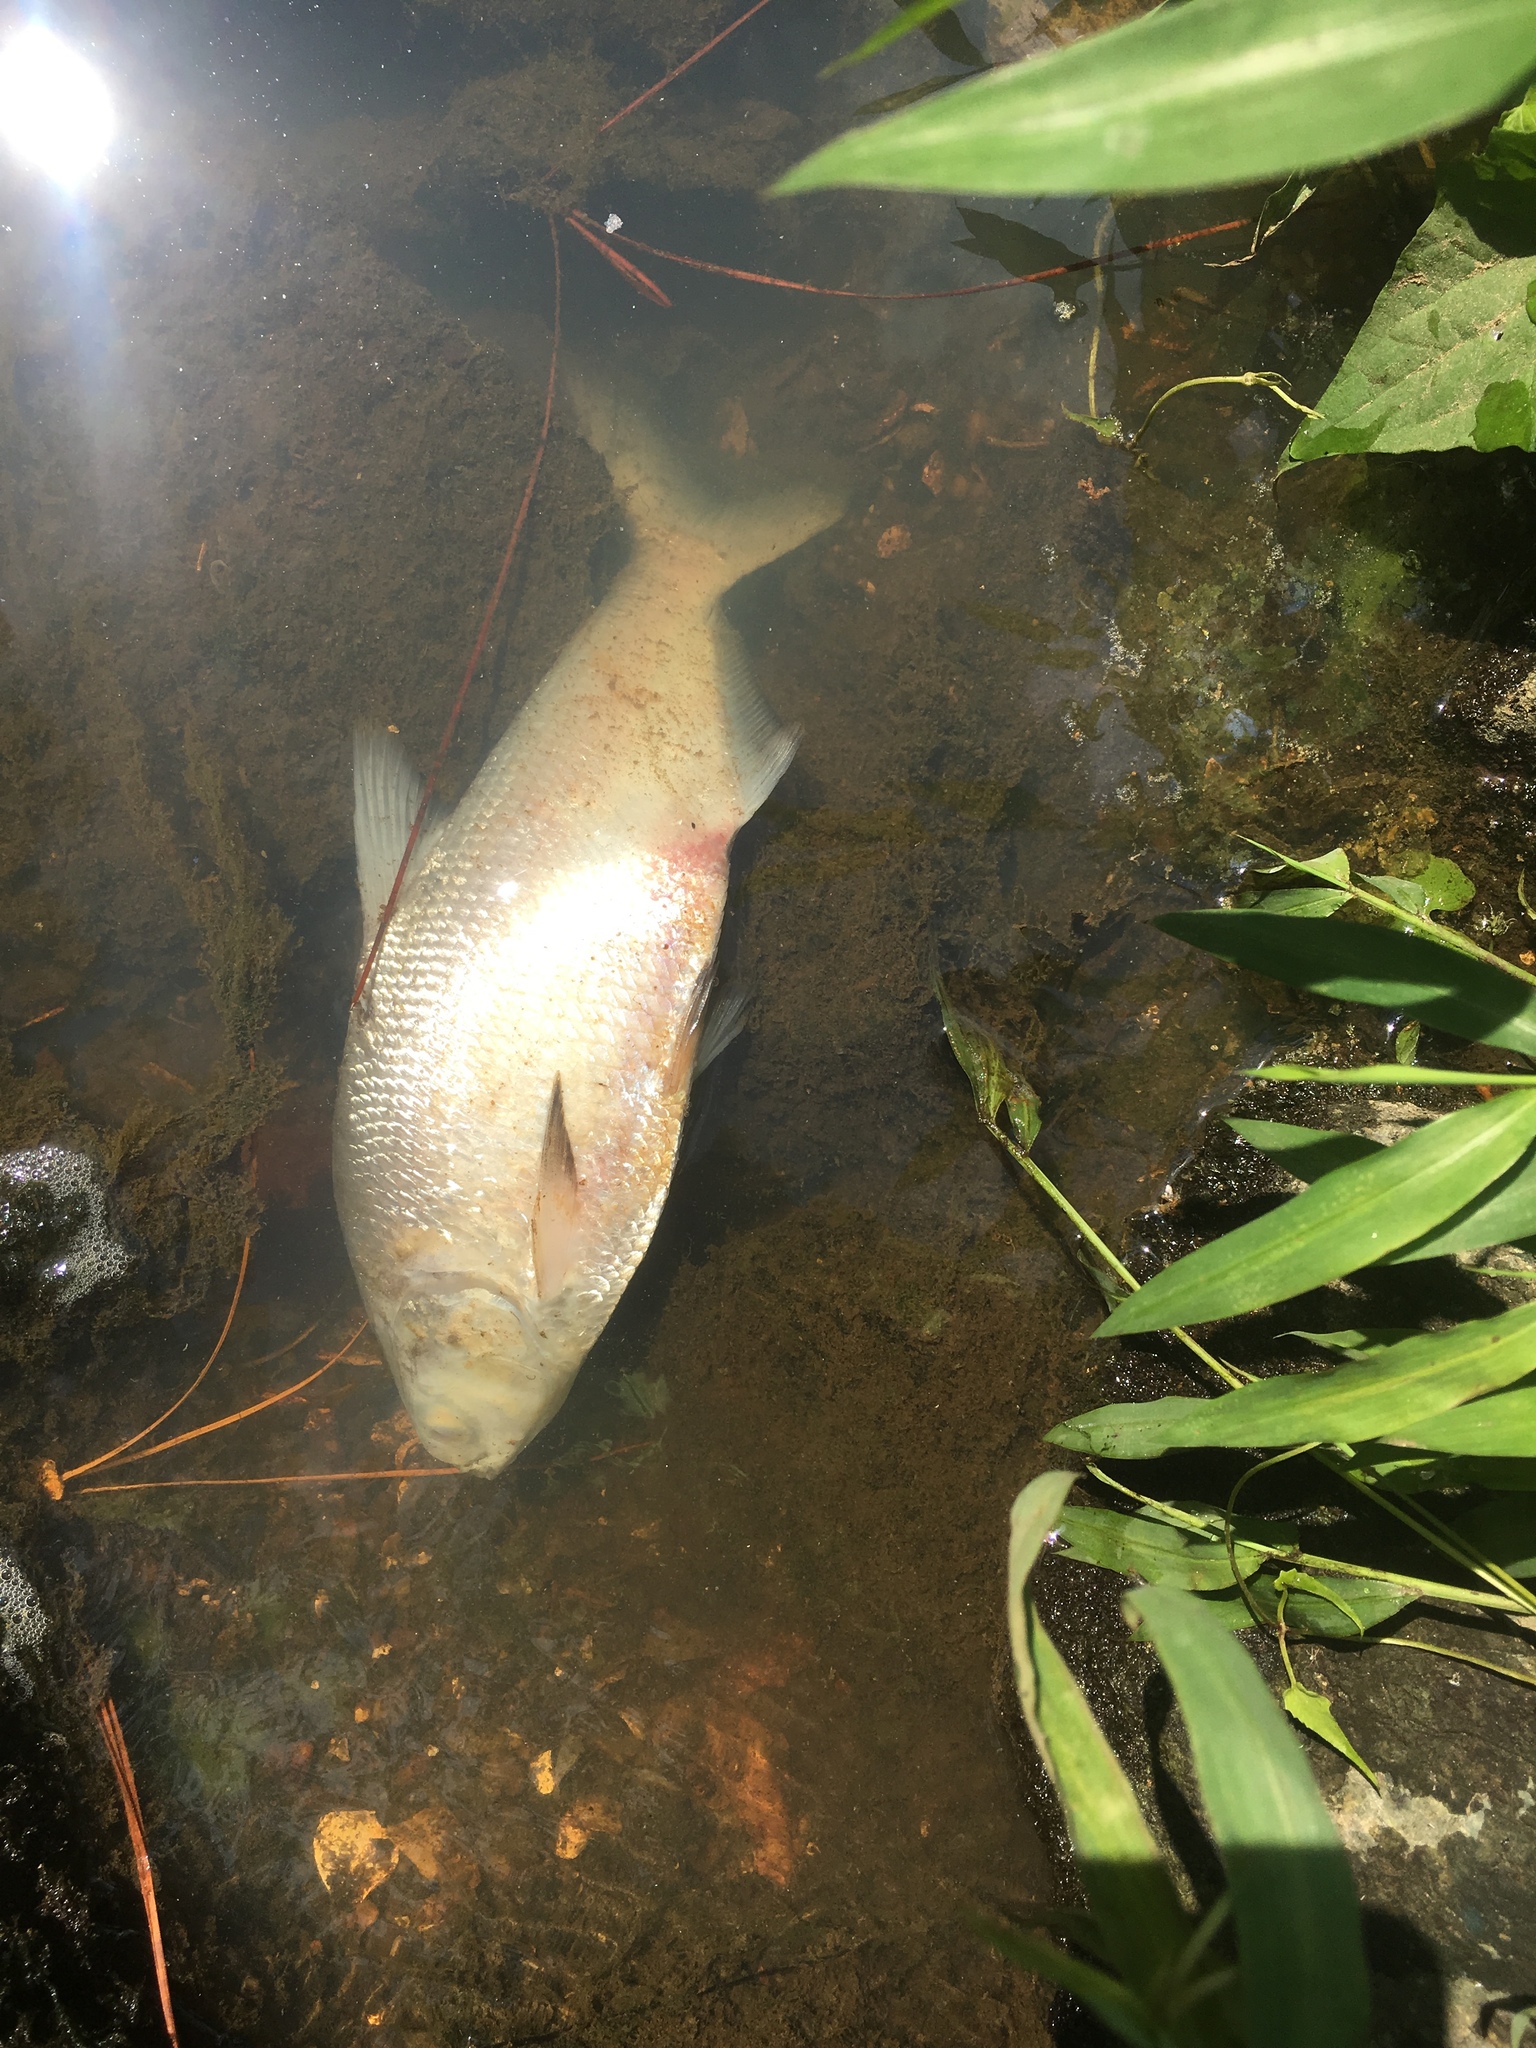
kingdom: Animalia
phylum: Chordata
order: Clupeiformes
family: Clupeidae
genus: Dorosoma
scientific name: Dorosoma cepedianum
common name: Gizzard shad
